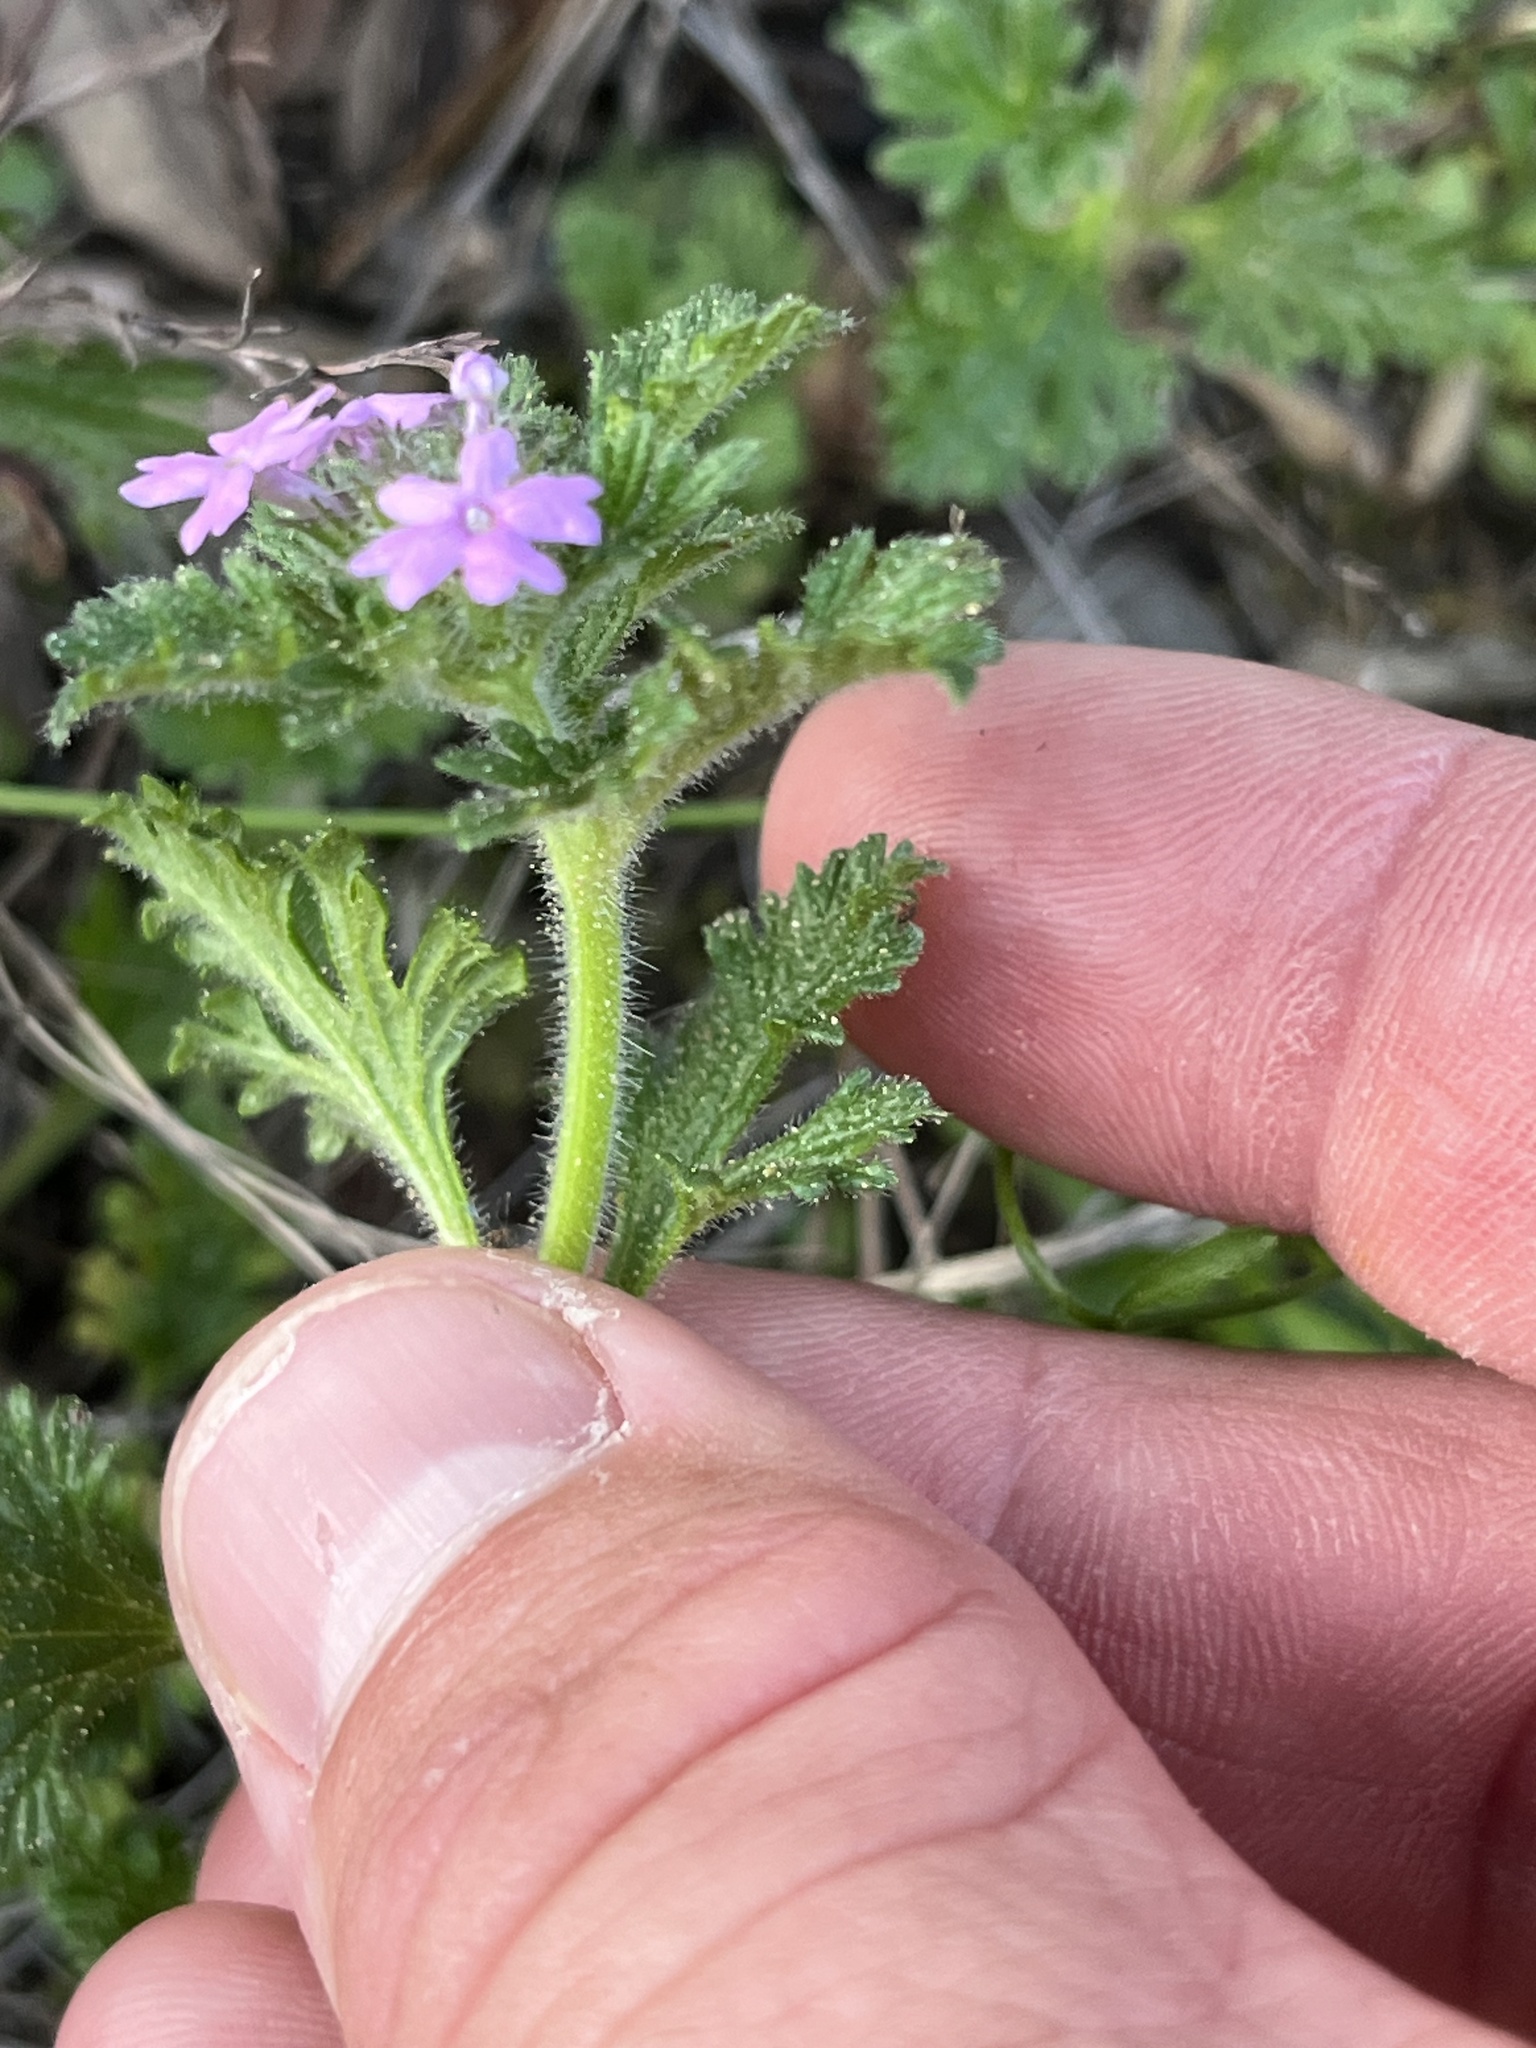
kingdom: Plantae
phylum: Tracheophyta
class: Magnoliopsida
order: Lamiales
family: Verbenaceae
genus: Verbena
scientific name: Verbena pumila
